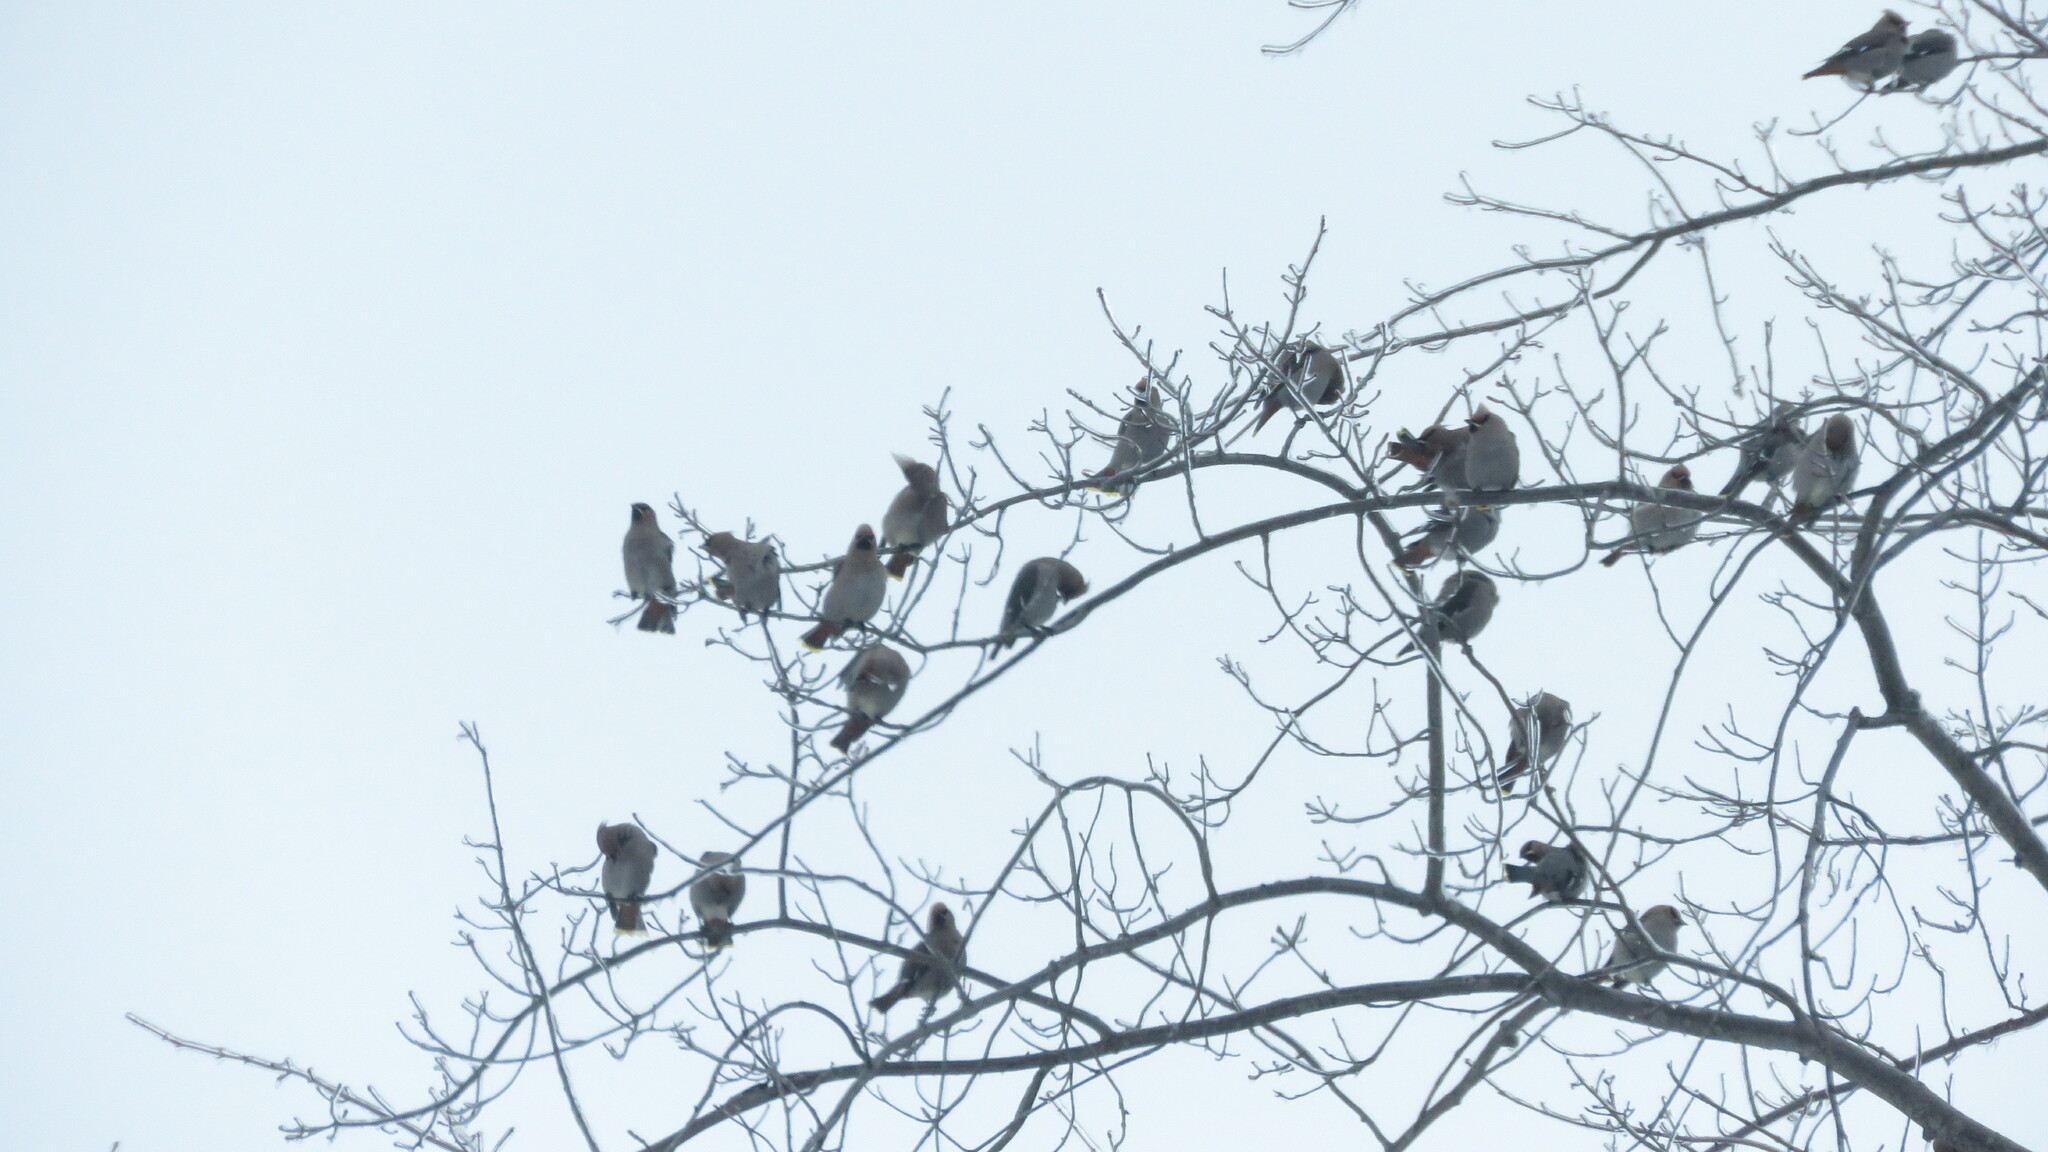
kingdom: Animalia
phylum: Chordata
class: Aves
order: Passeriformes
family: Bombycillidae
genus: Bombycilla
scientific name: Bombycilla garrulus
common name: Bohemian waxwing
